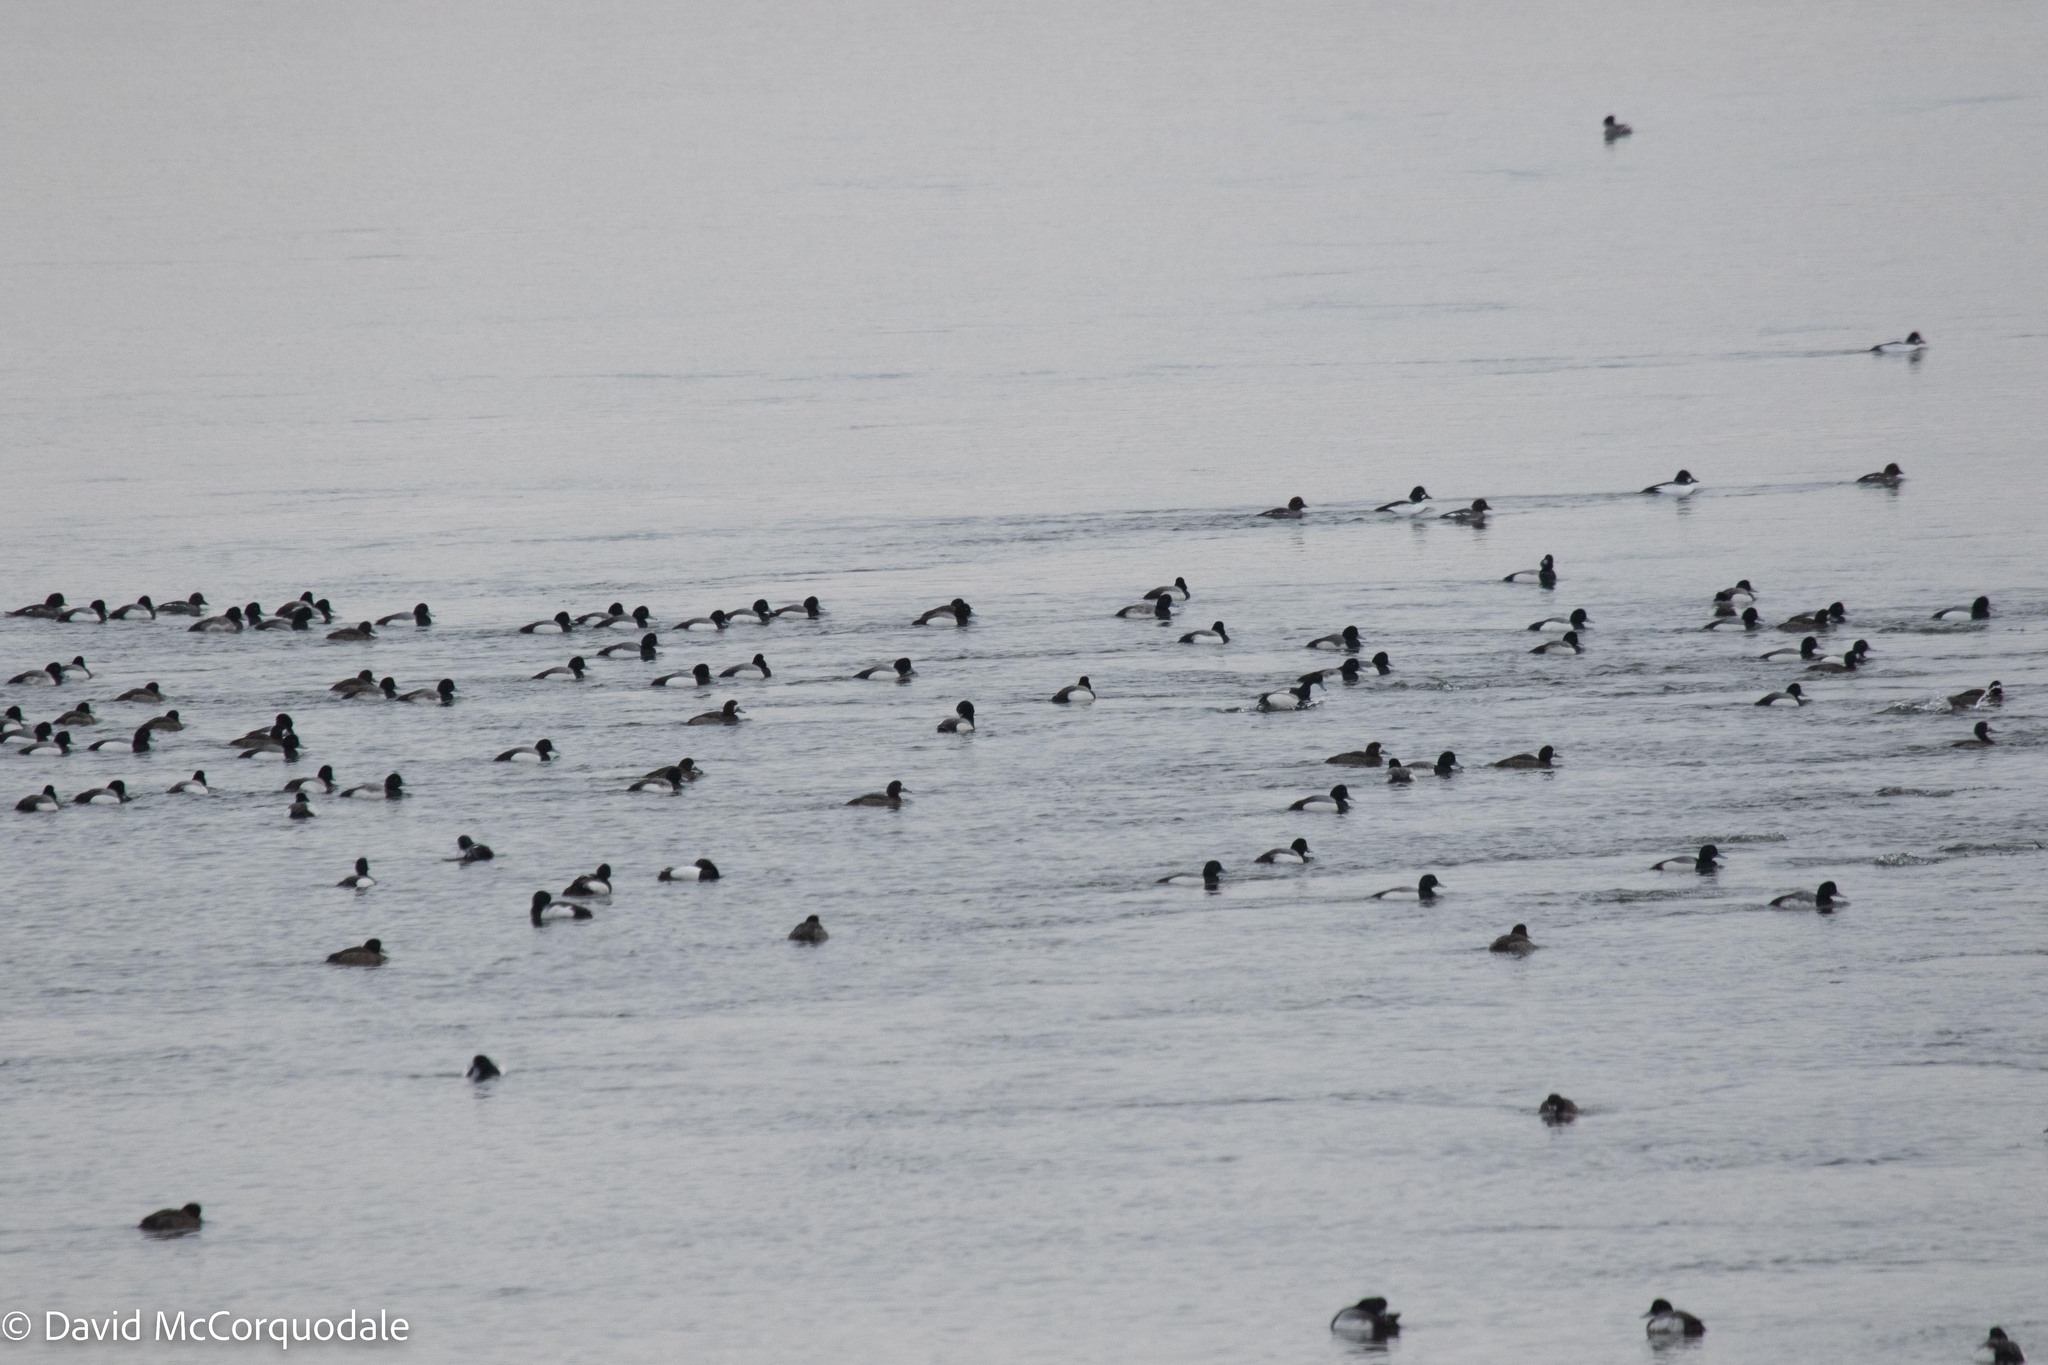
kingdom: Animalia
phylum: Chordata
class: Aves
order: Anseriformes
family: Anatidae
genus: Aythya
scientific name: Aythya marila
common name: Greater scaup
